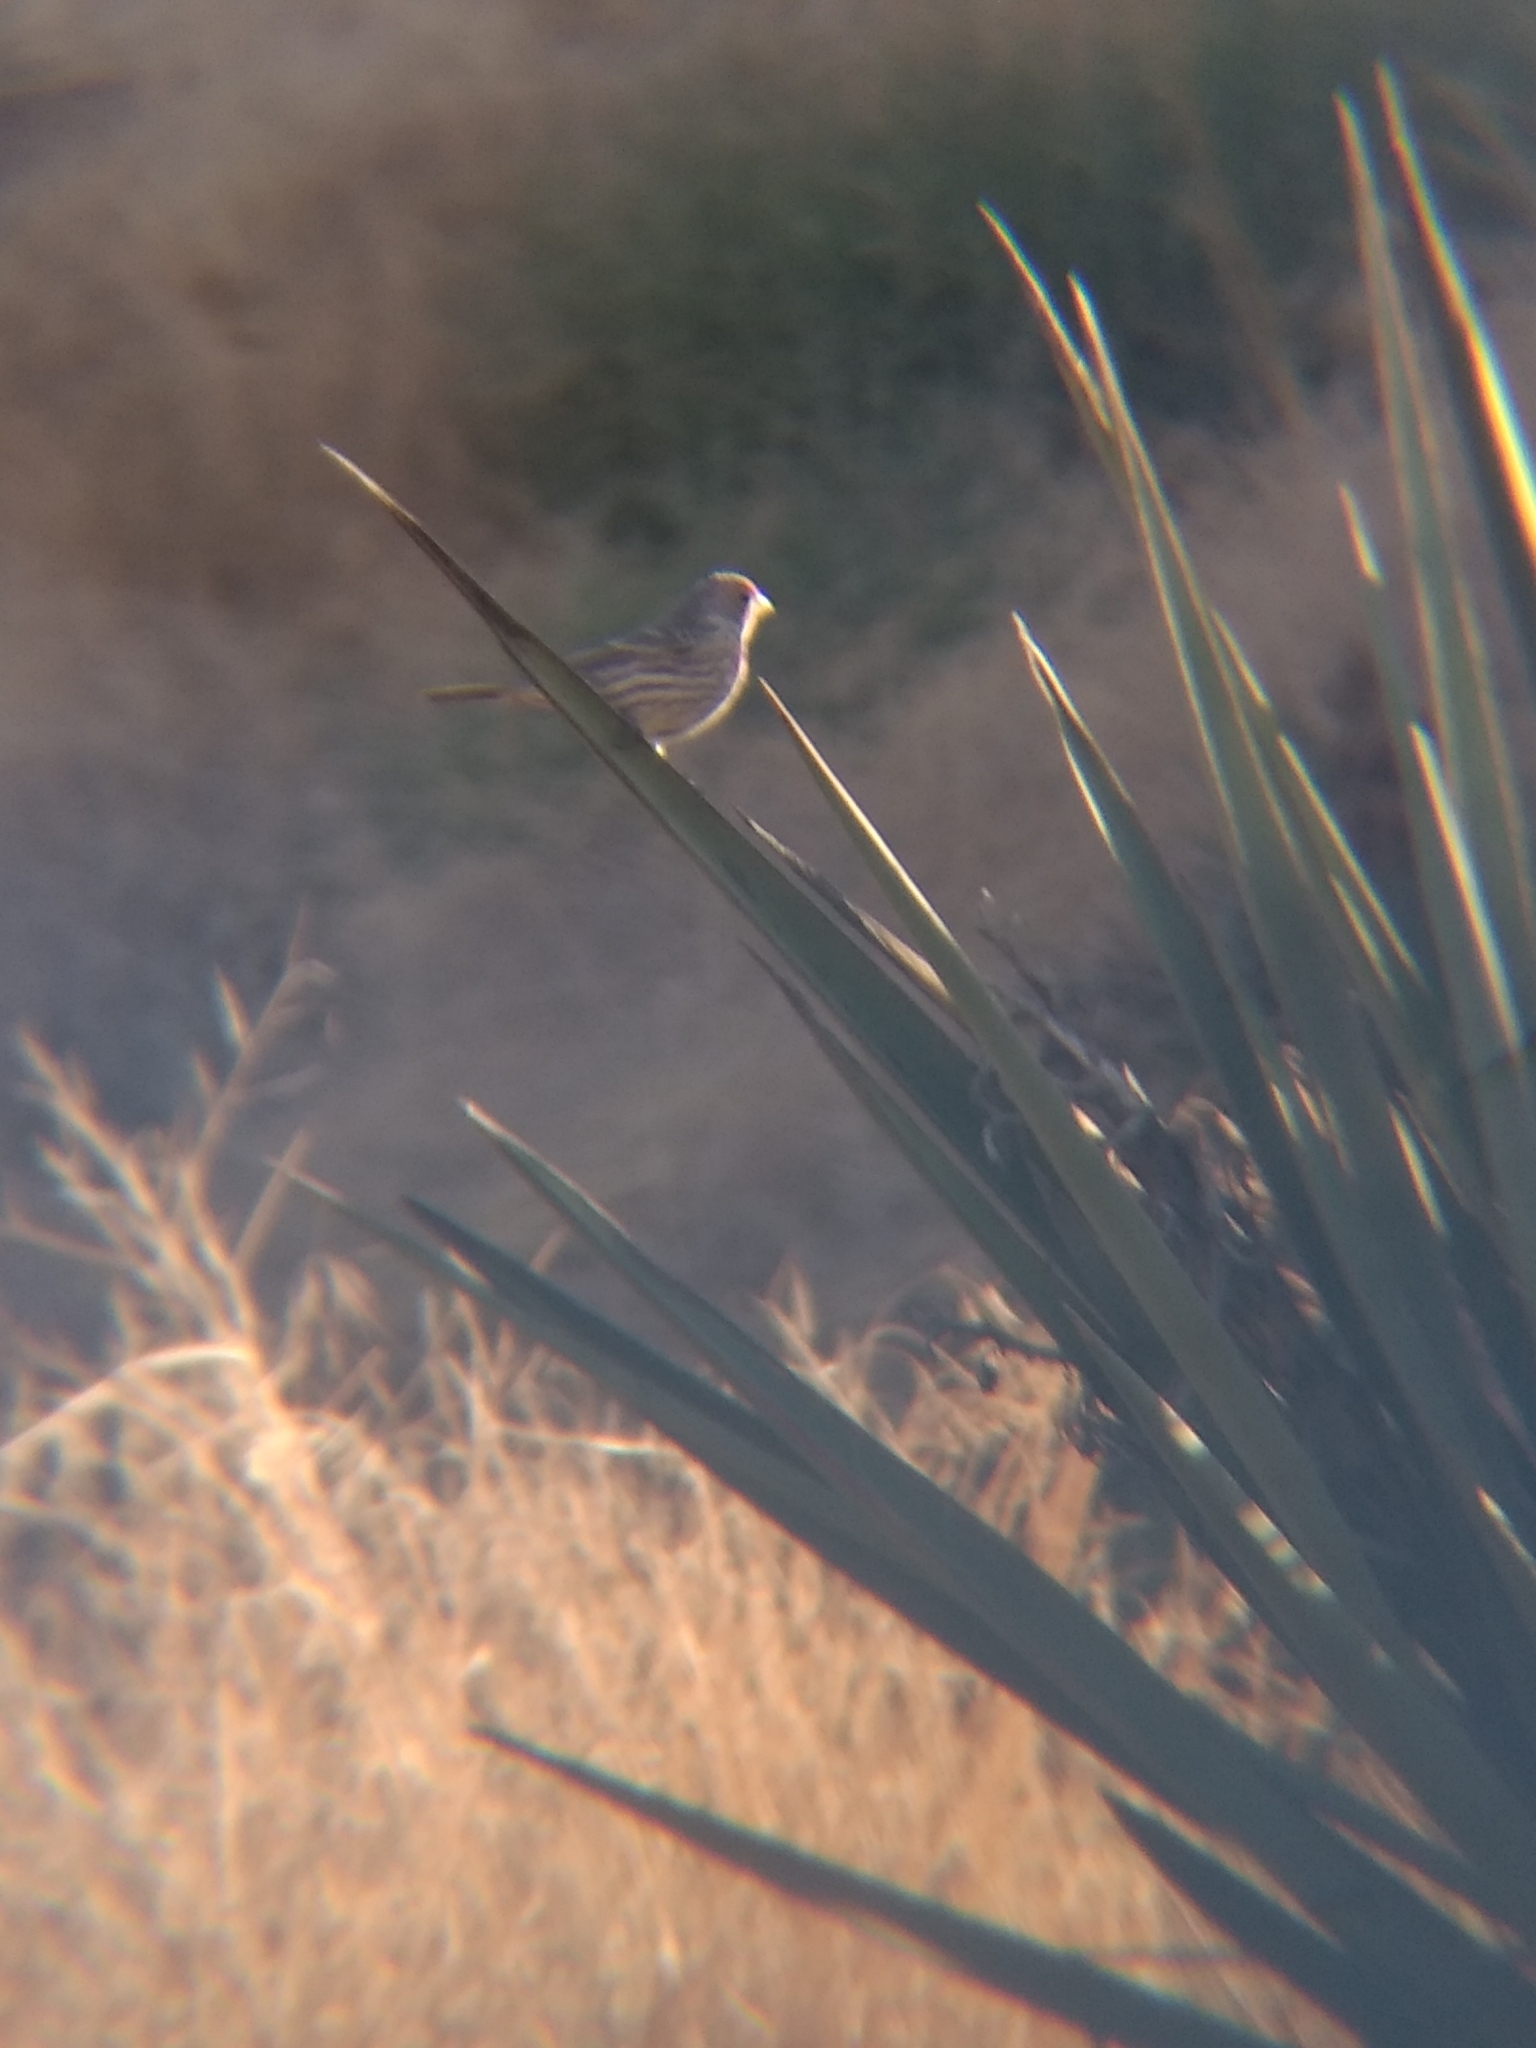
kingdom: Animalia
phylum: Chordata
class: Aves
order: Passeriformes
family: Fringillidae
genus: Haemorhous
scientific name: Haemorhous mexicanus
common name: House finch
